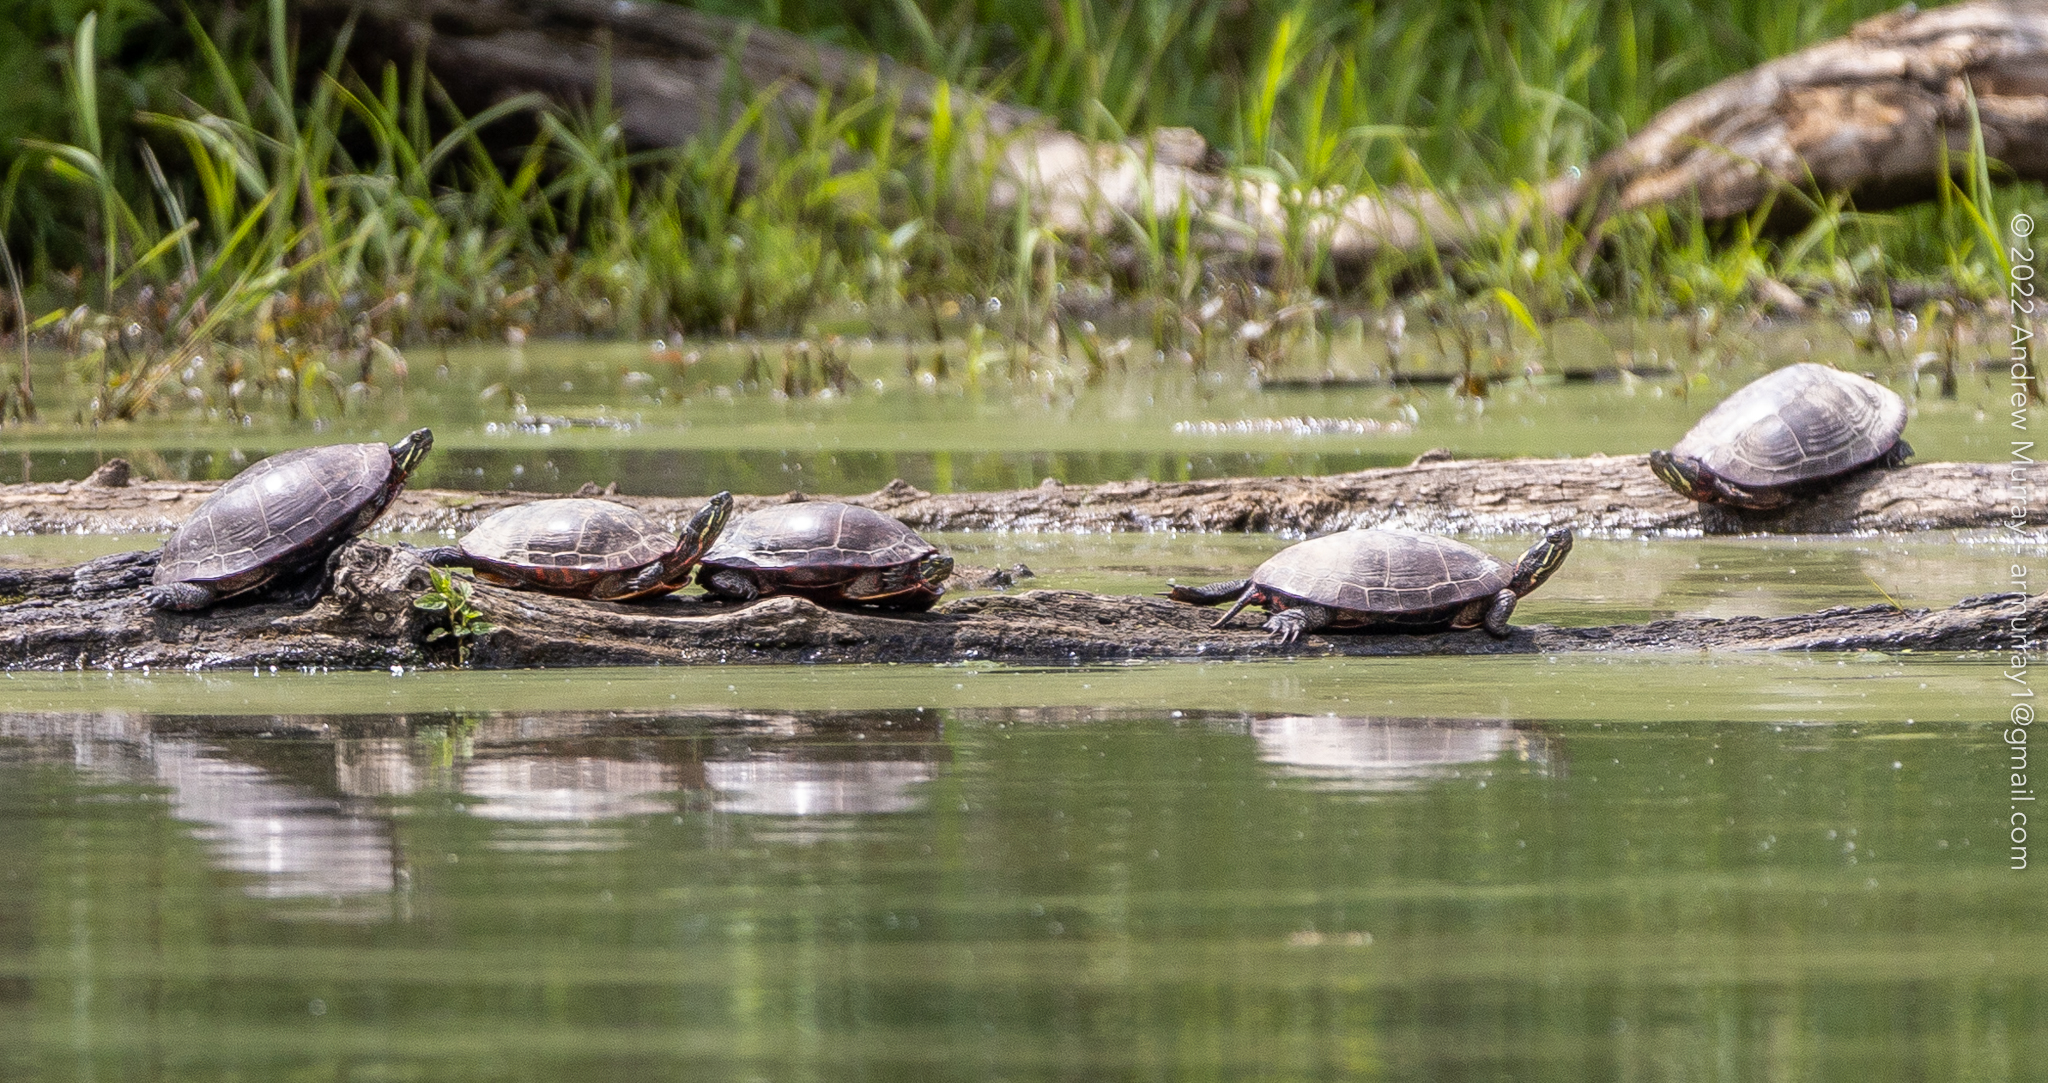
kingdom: Animalia
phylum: Chordata
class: Testudines
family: Emydidae
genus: Chrysemys
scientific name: Chrysemys picta
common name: Painted turtle
